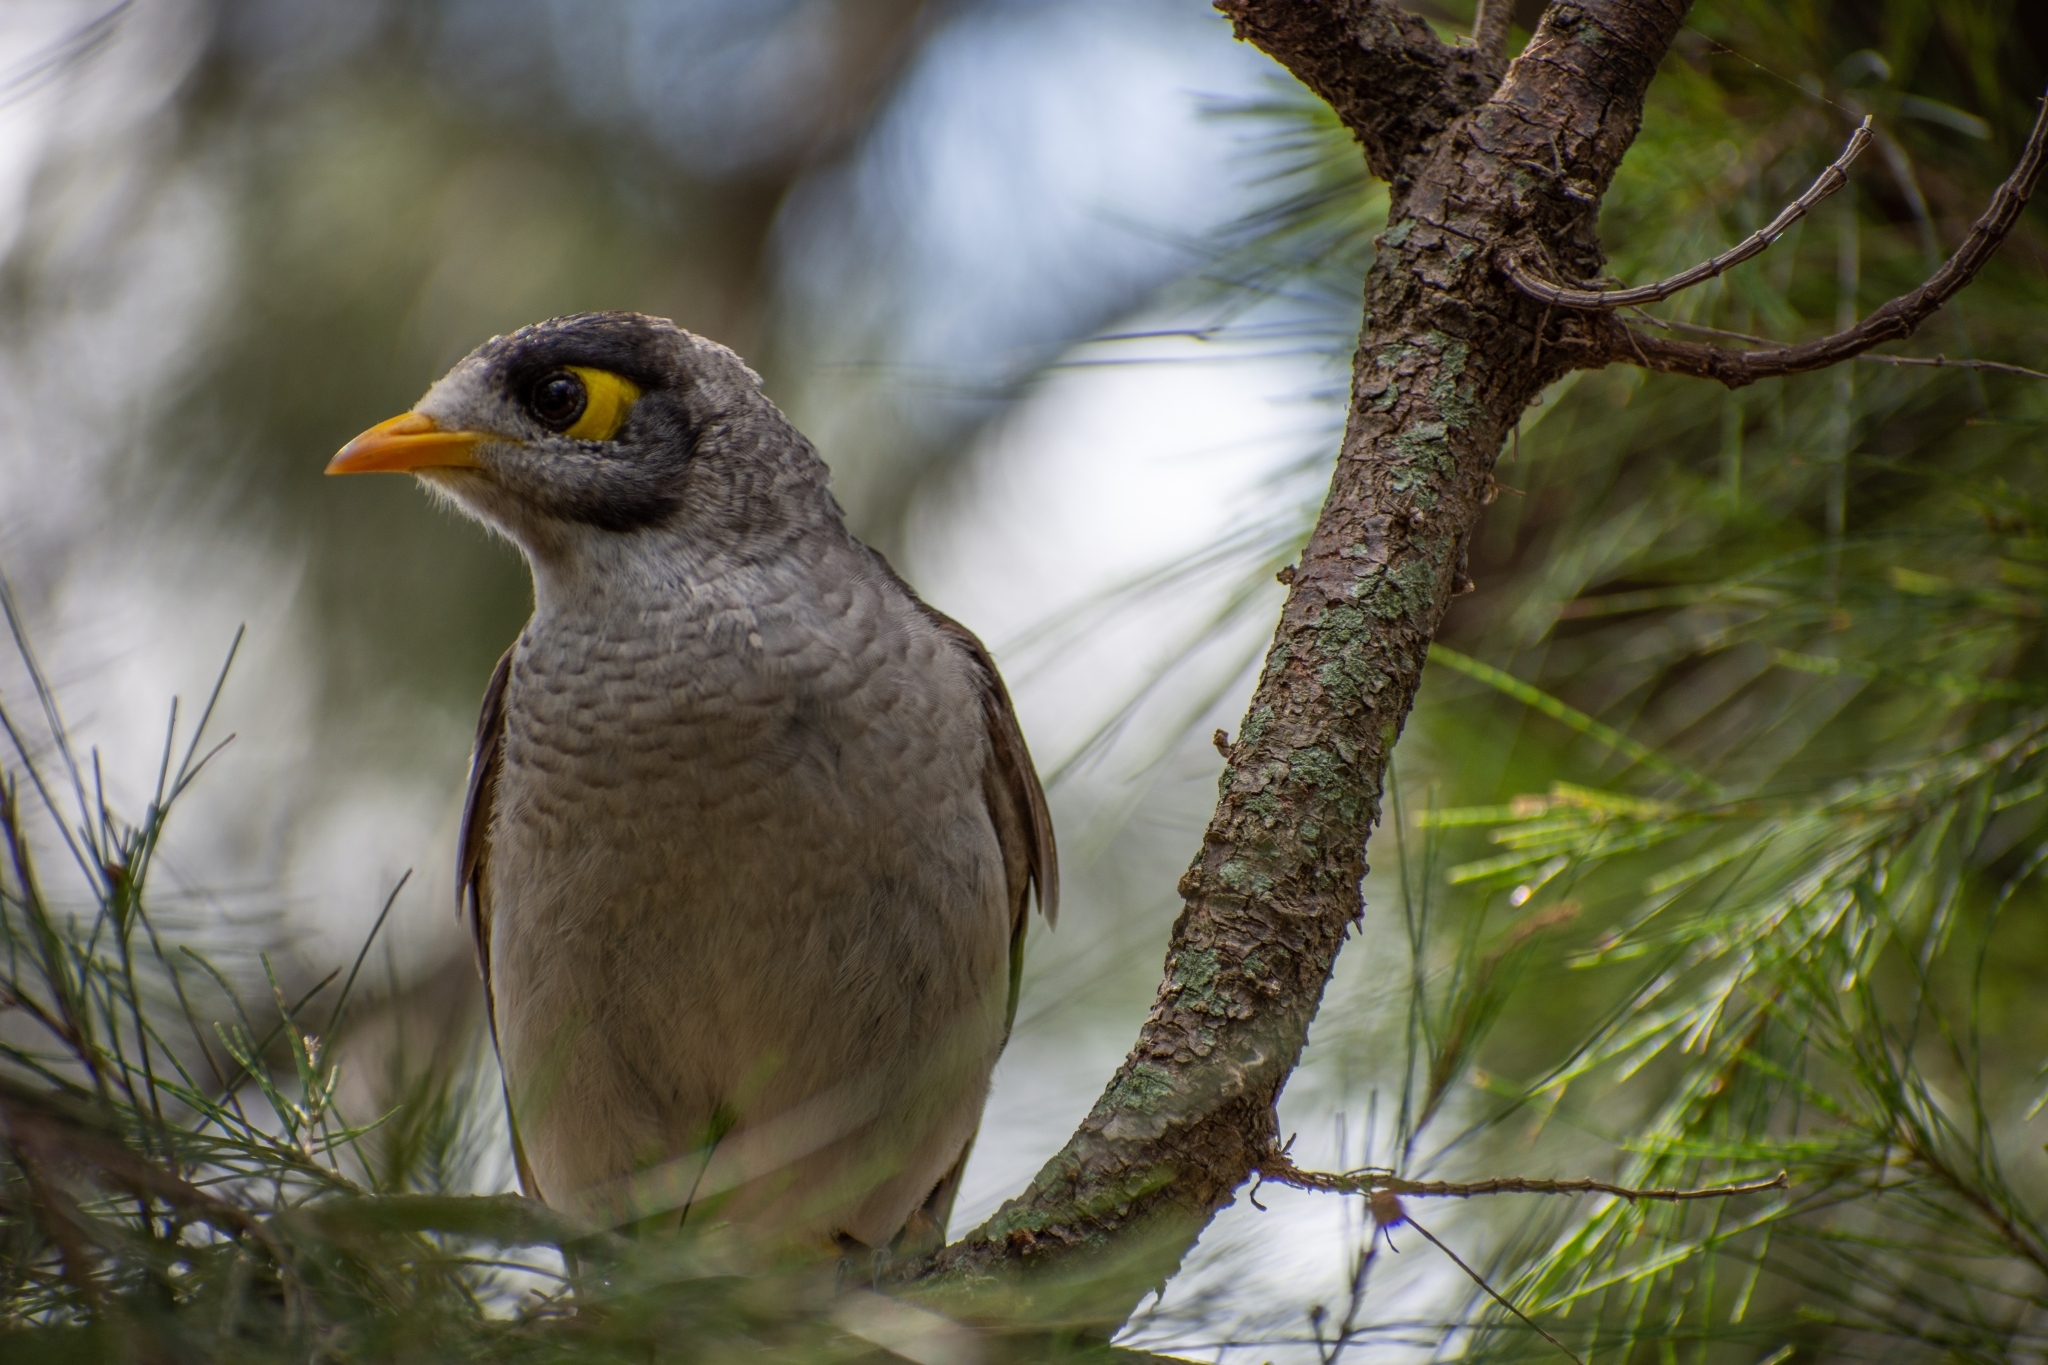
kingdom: Animalia
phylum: Chordata
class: Aves
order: Passeriformes
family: Meliphagidae
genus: Manorina
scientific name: Manorina melanocephala
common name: Noisy miner
